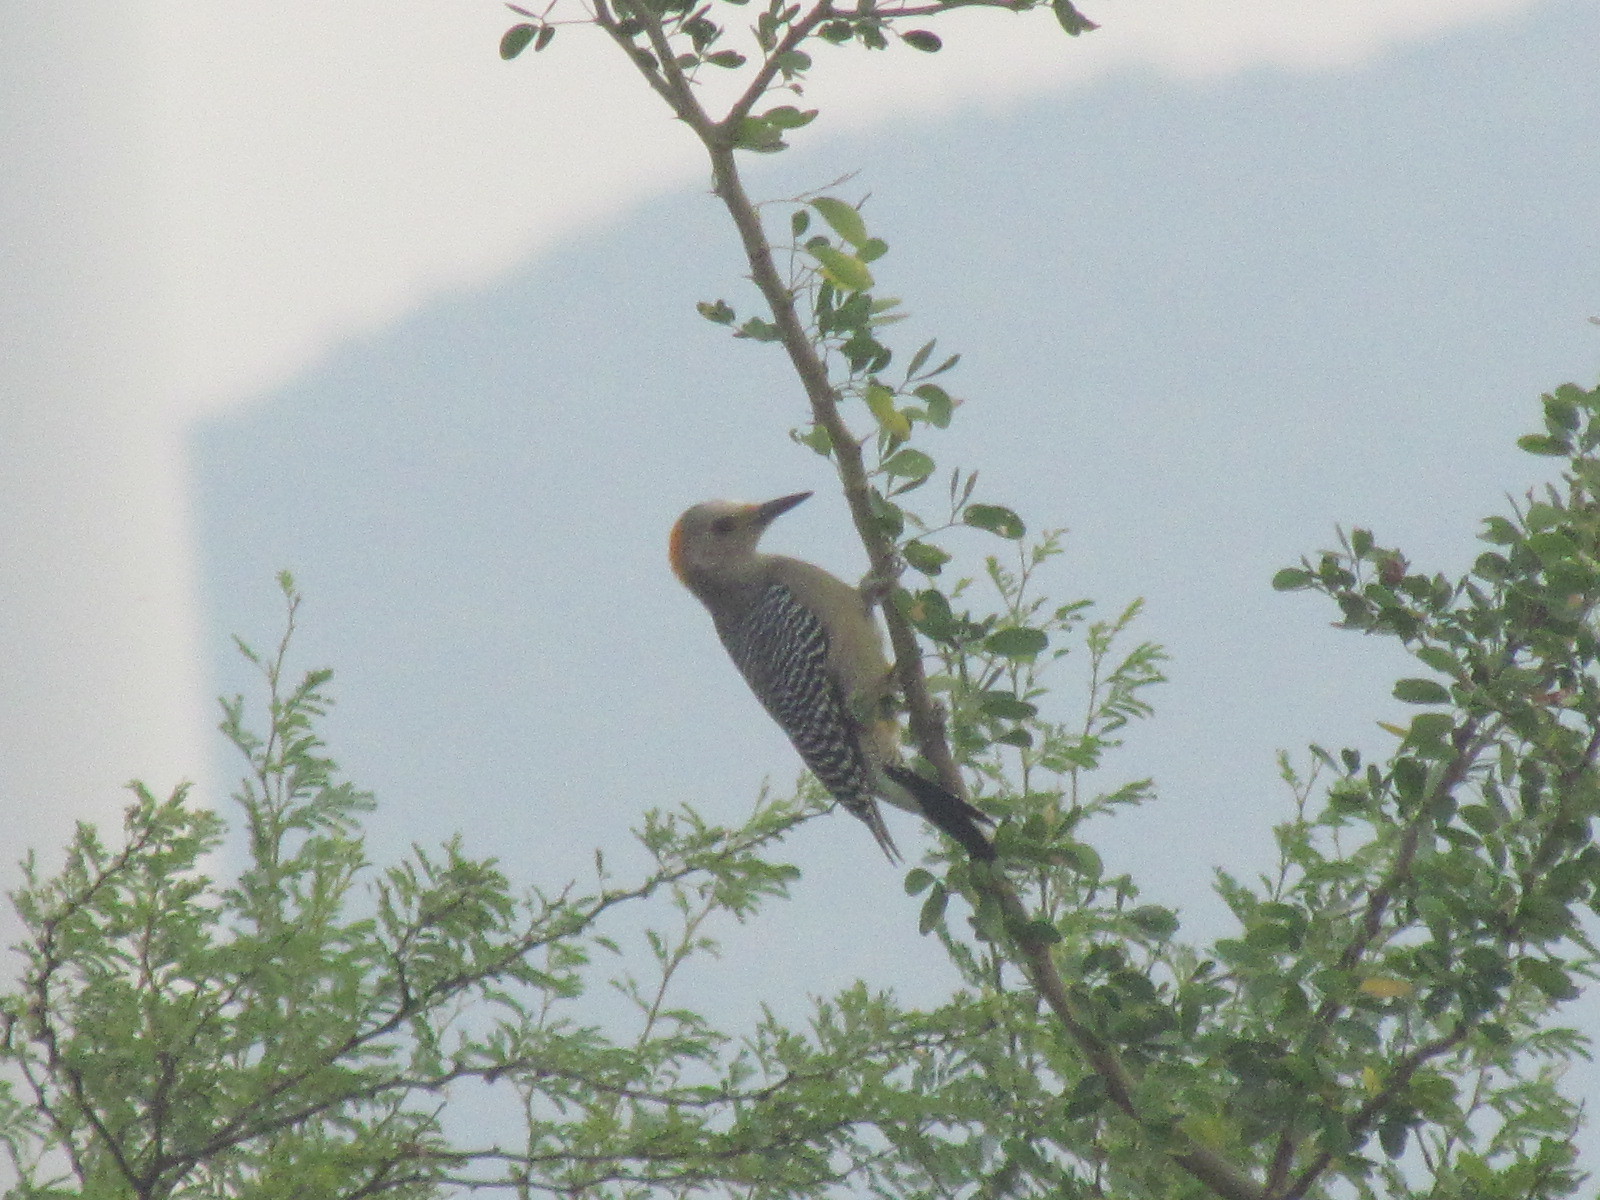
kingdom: Animalia
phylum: Chordata
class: Aves
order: Piciformes
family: Picidae
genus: Melanerpes
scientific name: Melanerpes aurifrons
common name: Golden-fronted woodpecker
